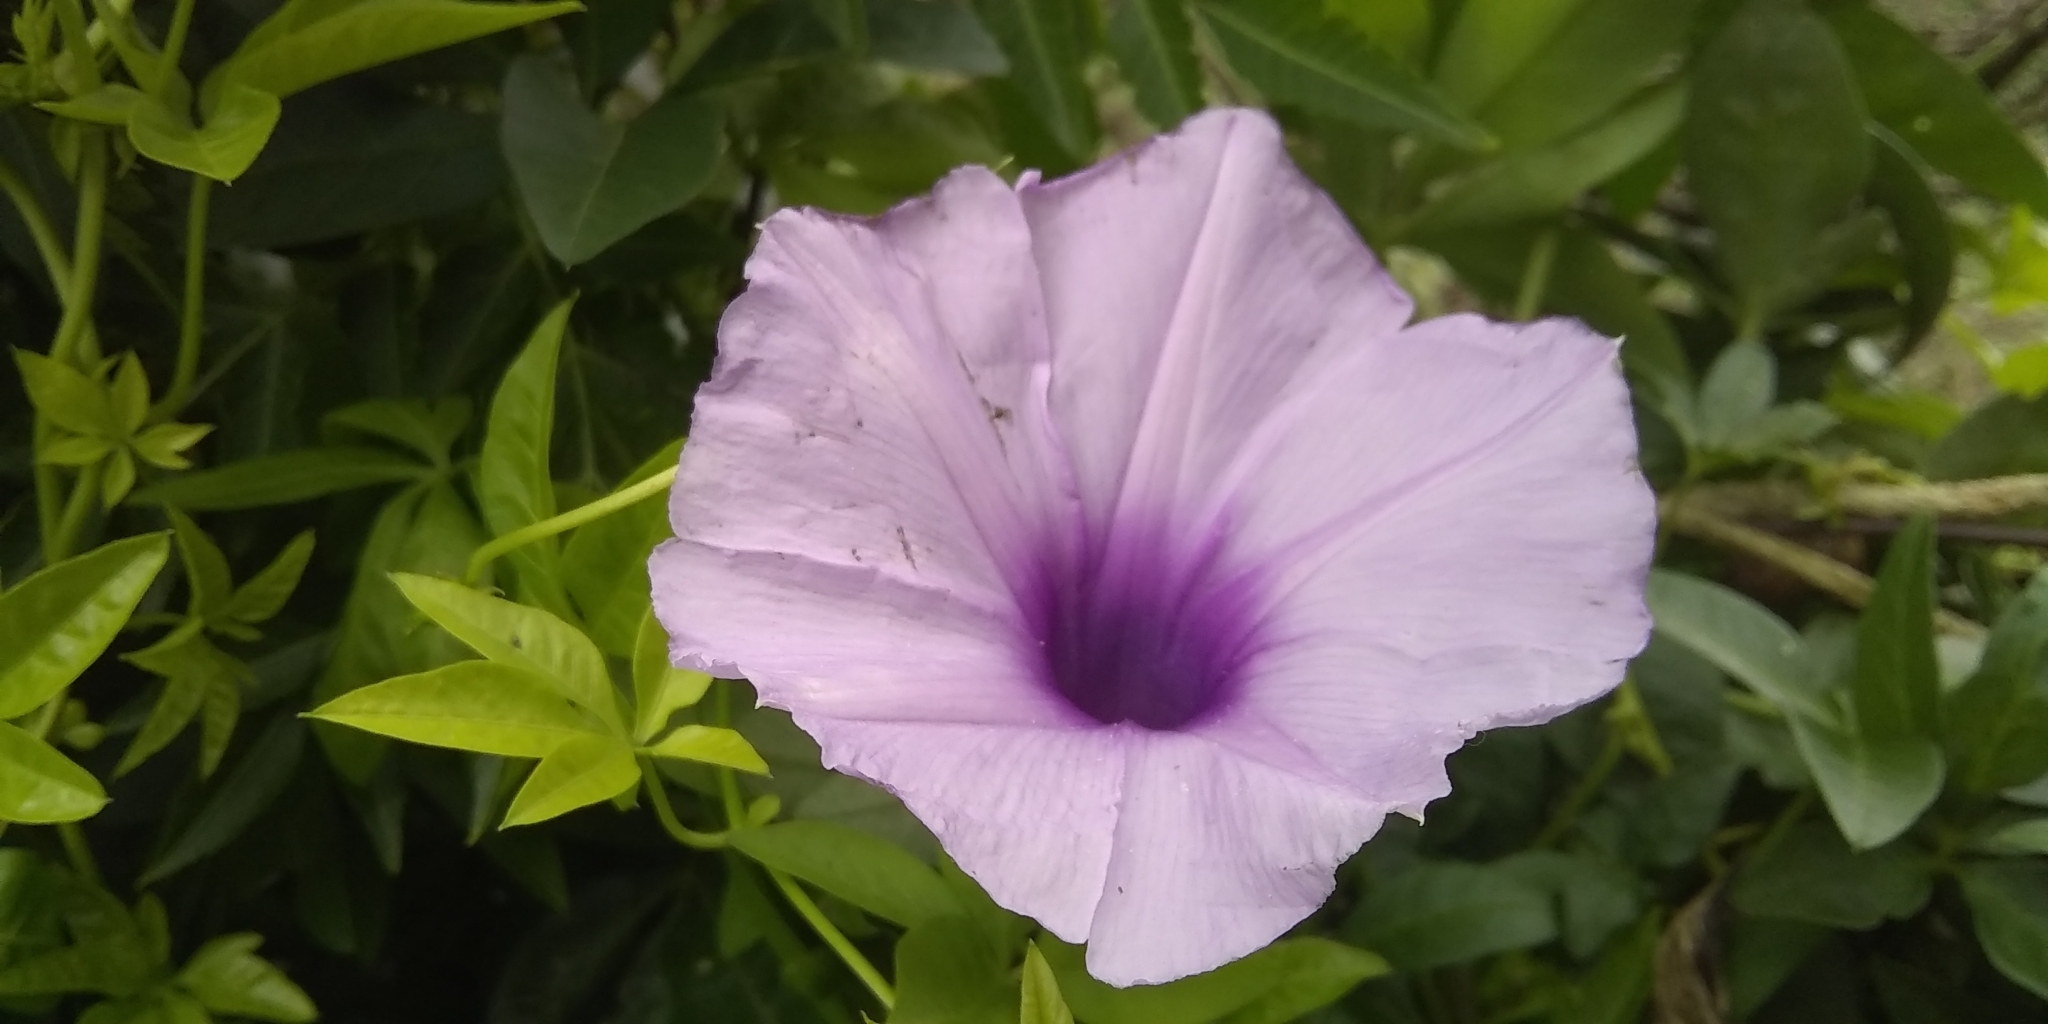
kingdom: Plantae
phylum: Tracheophyta
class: Magnoliopsida
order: Solanales
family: Convolvulaceae
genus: Ipomoea
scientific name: Ipomoea cairica
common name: Mile a minute vine
